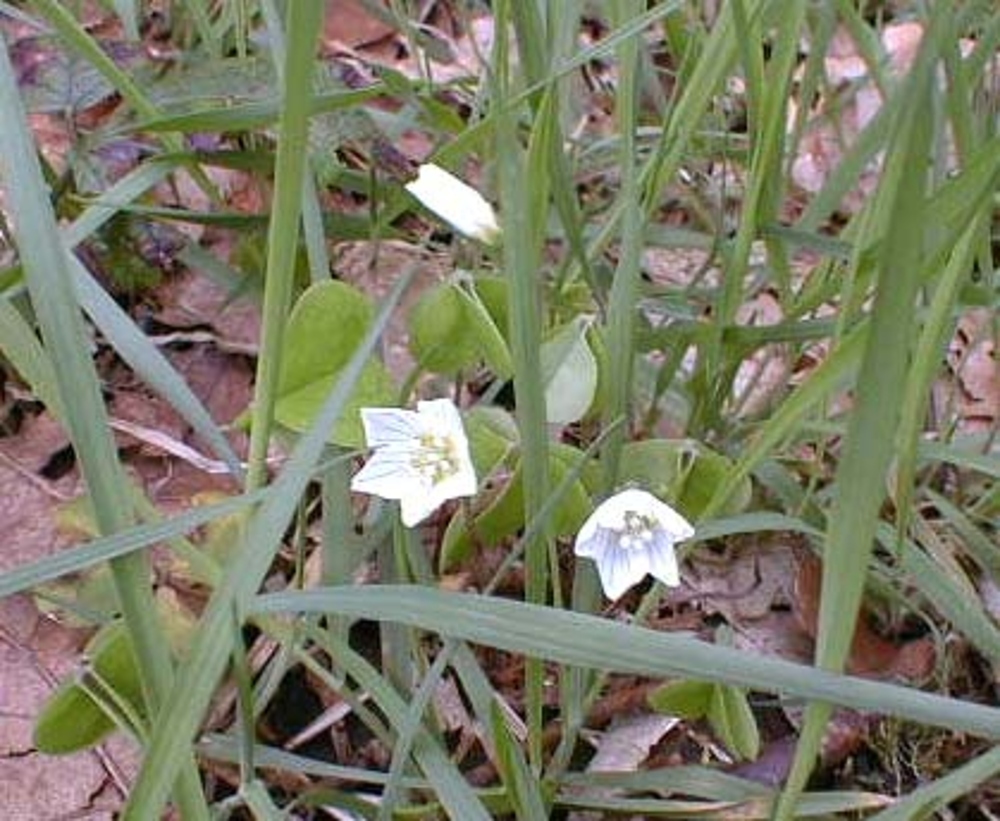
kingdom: Plantae
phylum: Tracheophyta
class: Magnoliopsida
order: Oxalidales
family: Oxalidaceae
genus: Oxalis
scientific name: Oxalis acetosella
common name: Wood-sorrel
